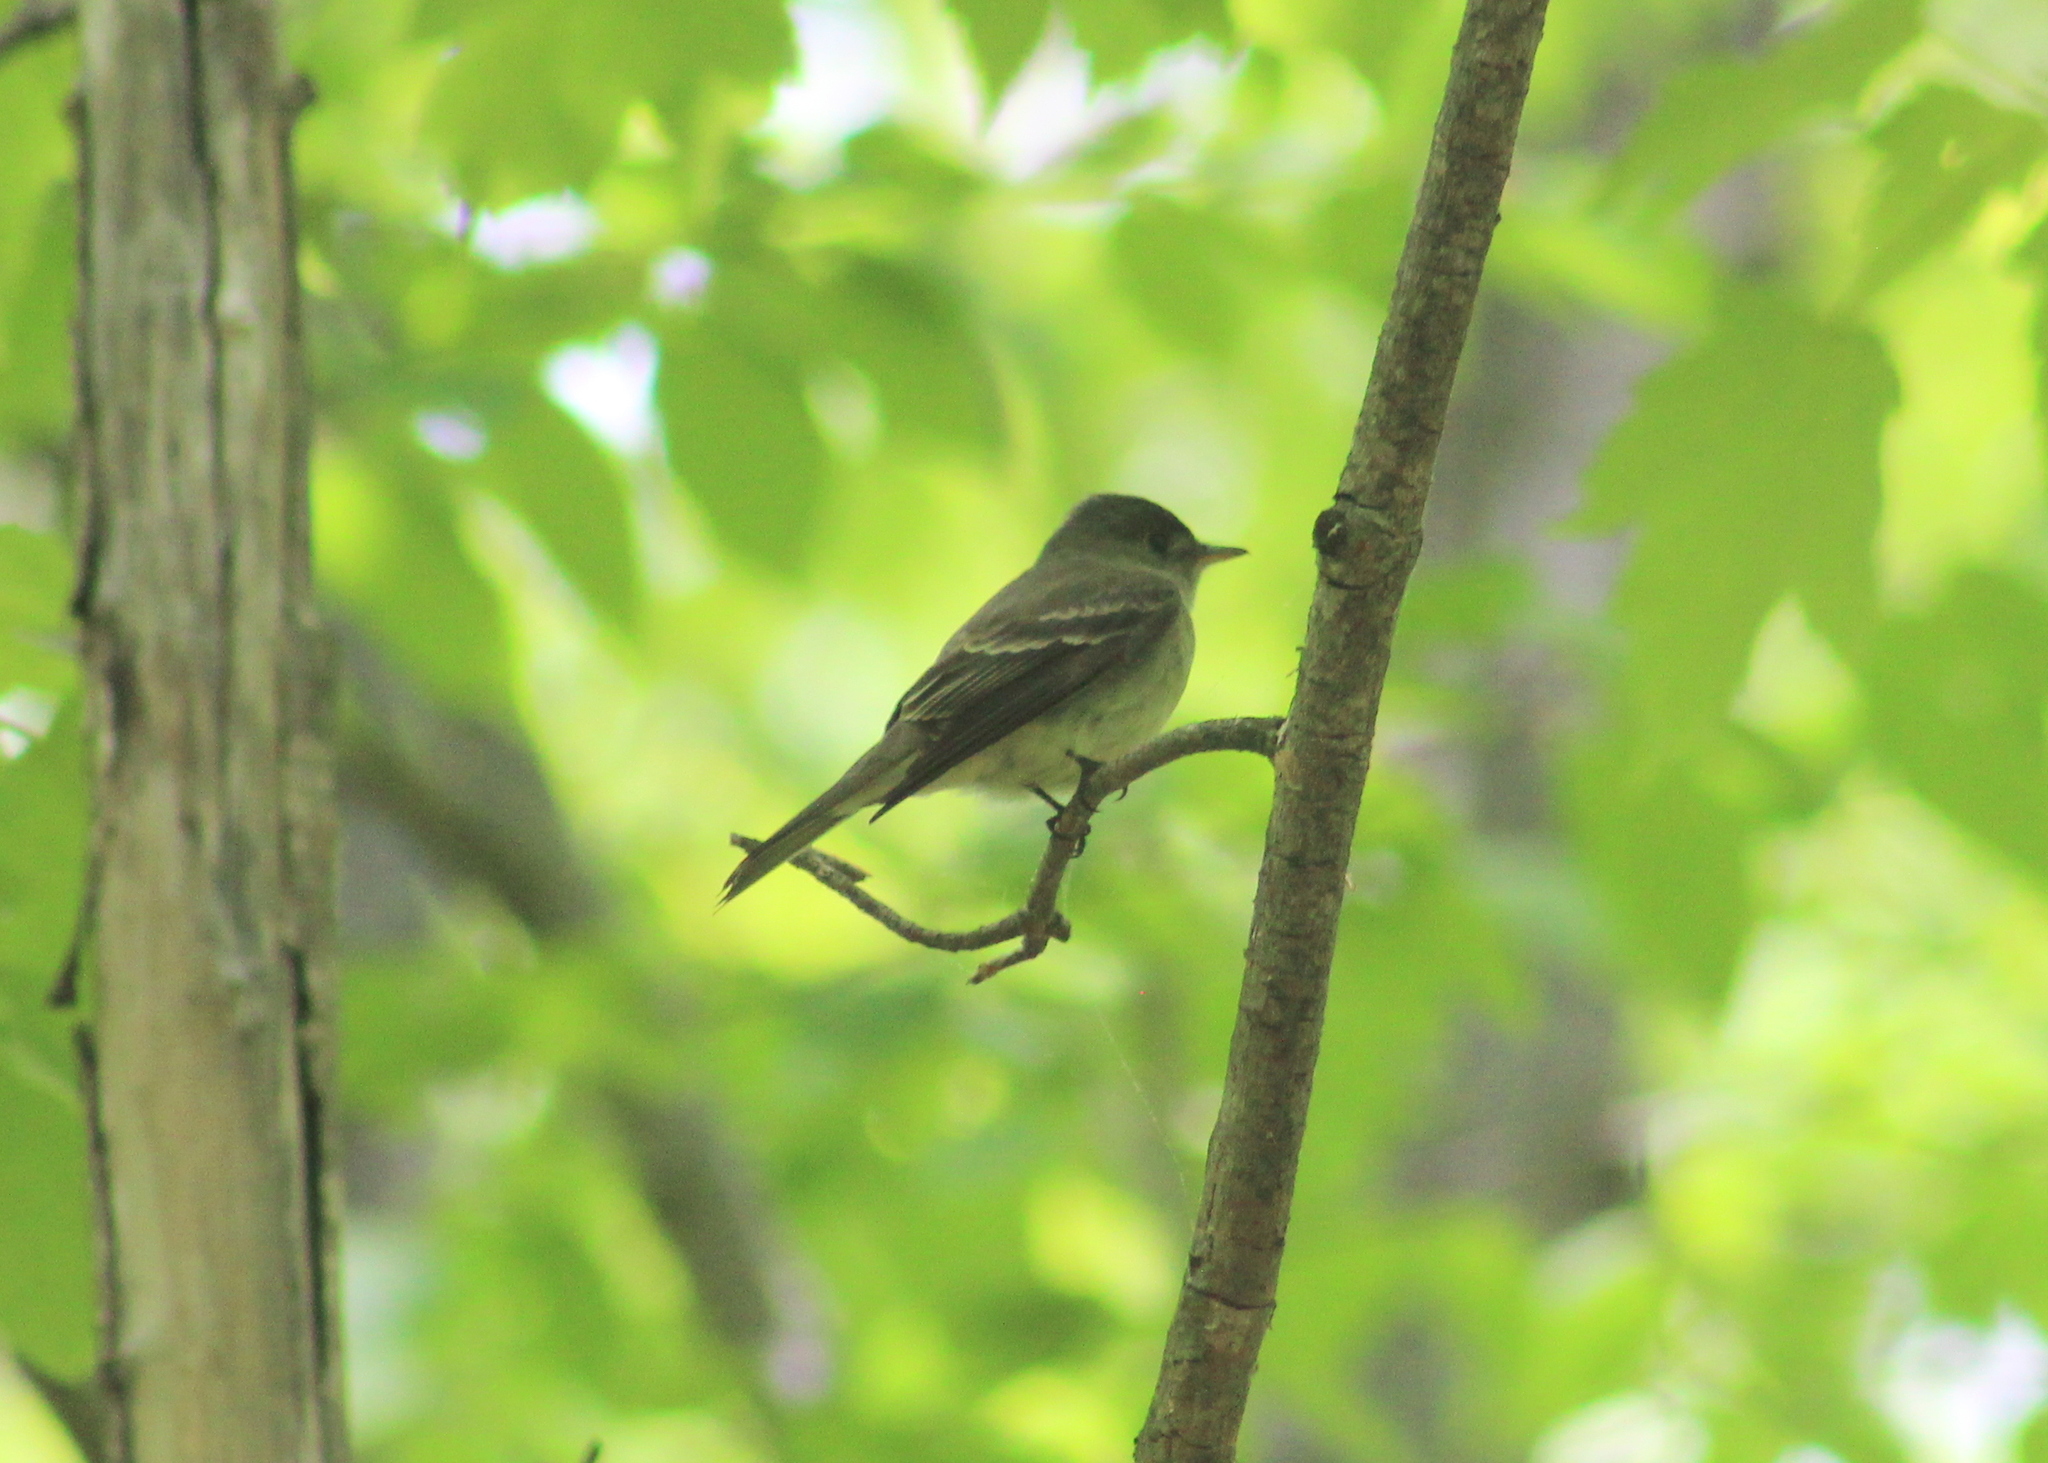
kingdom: Animalia
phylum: Chordata
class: Aves
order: Passeriformes
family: Tyrannidae
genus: Contopus
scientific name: Contopus virens
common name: Eastern wood-pewee
